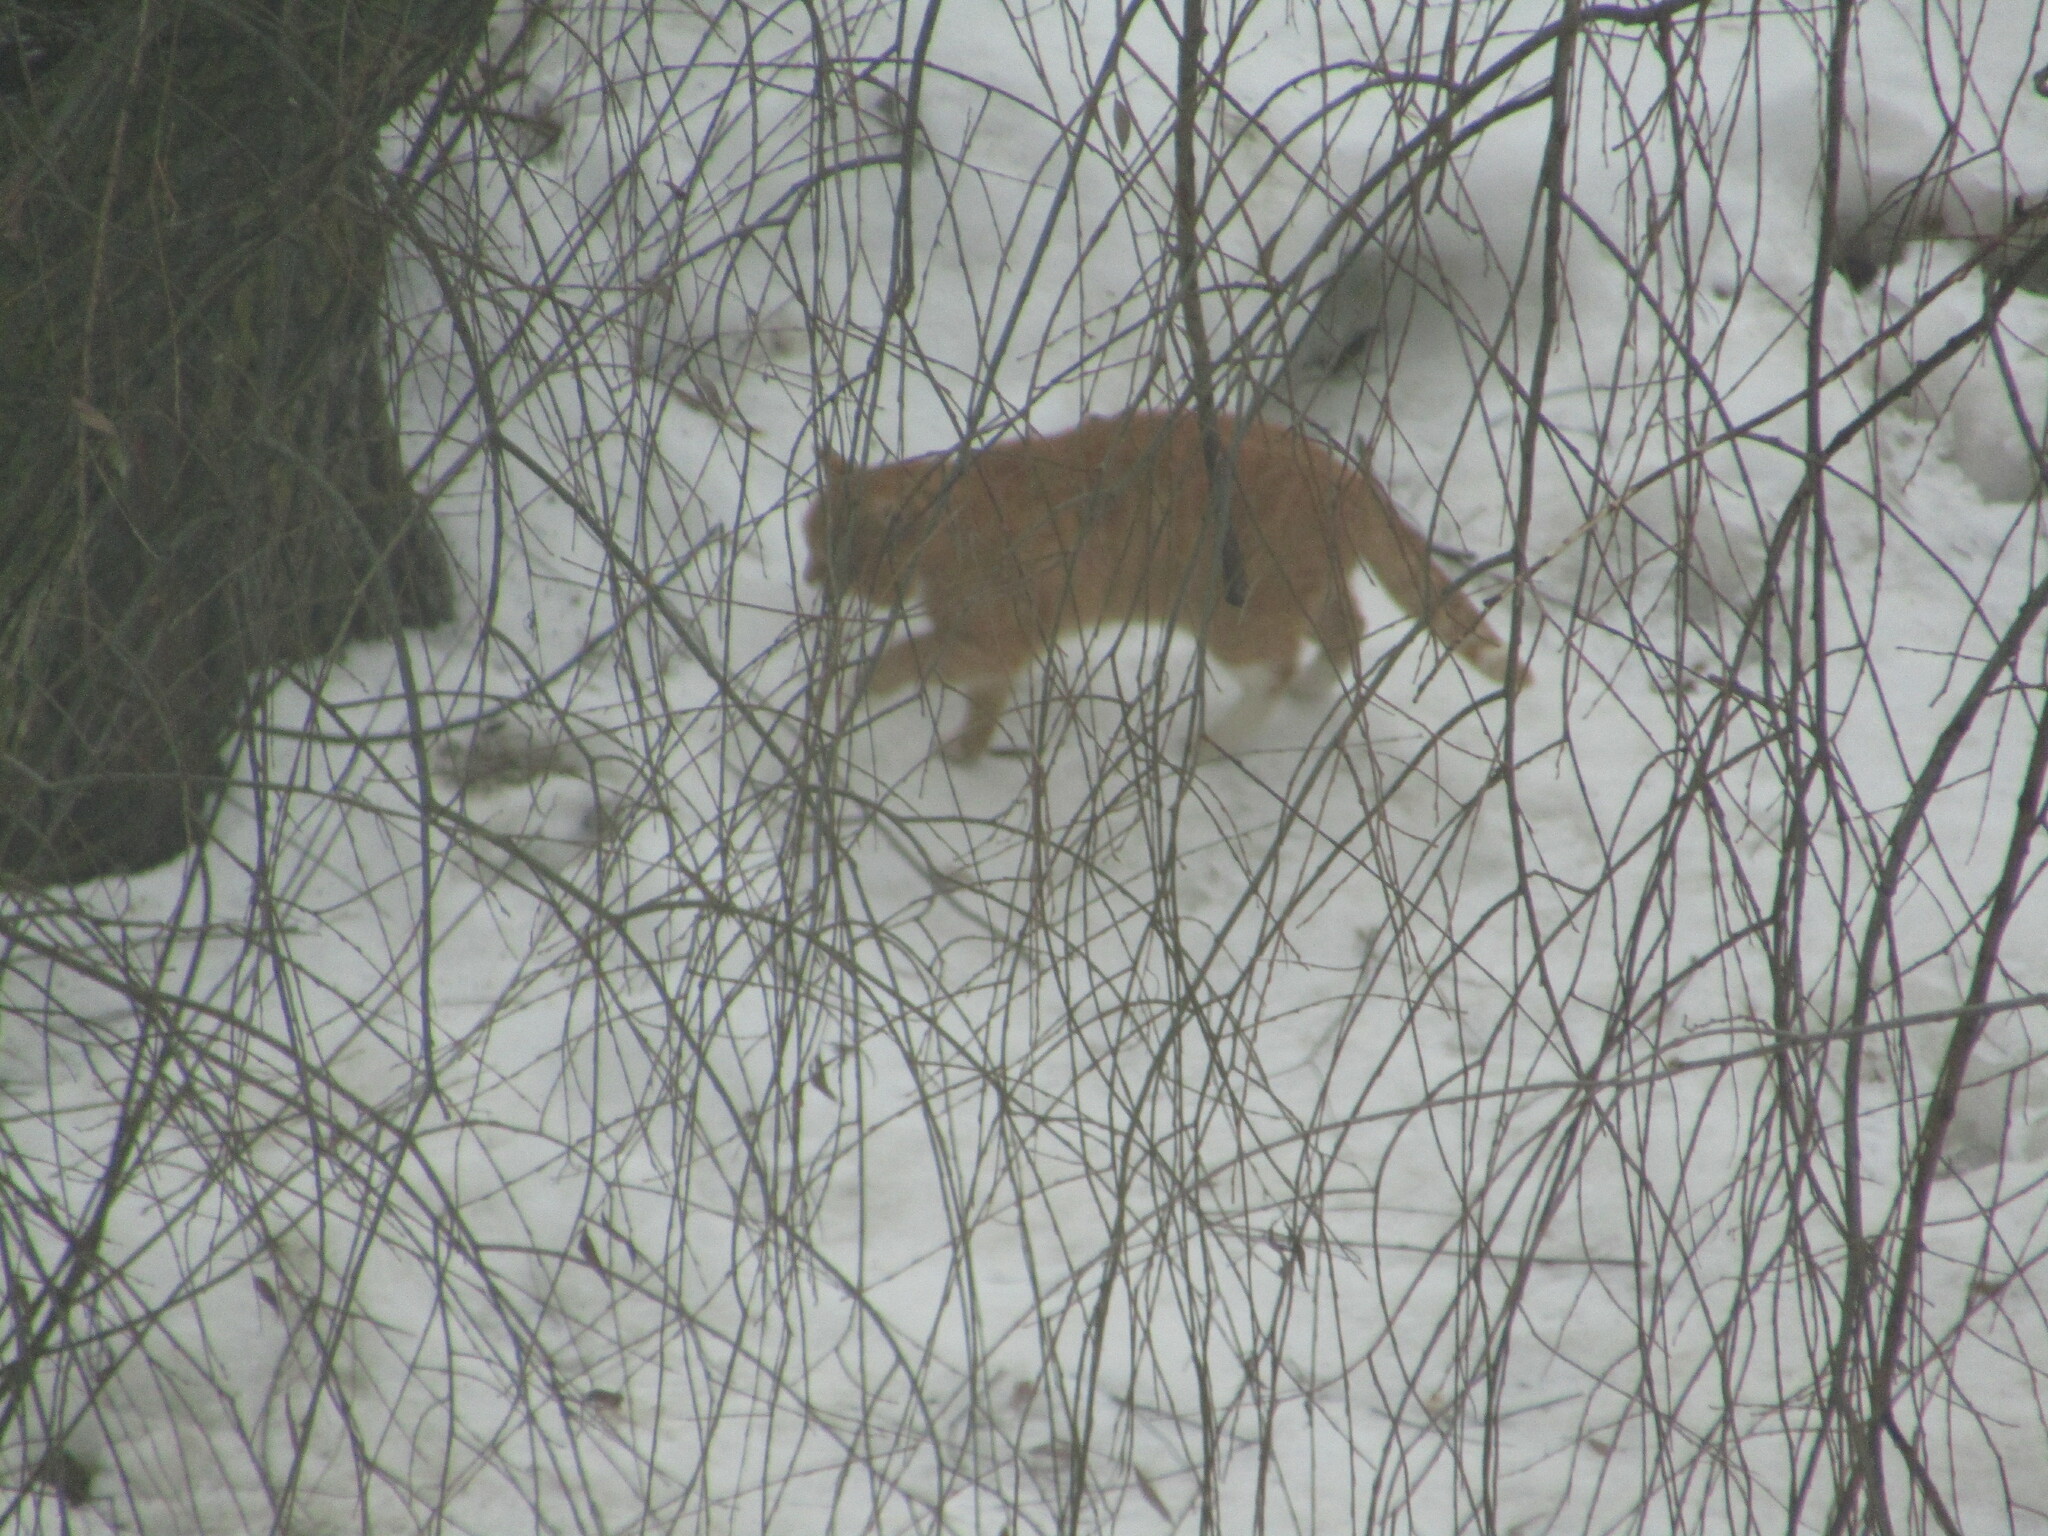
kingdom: Animalia
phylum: Chordata
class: Mammalia
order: Carnivora
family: Felidae
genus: Felis
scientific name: Felis catus
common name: Domestic cat
